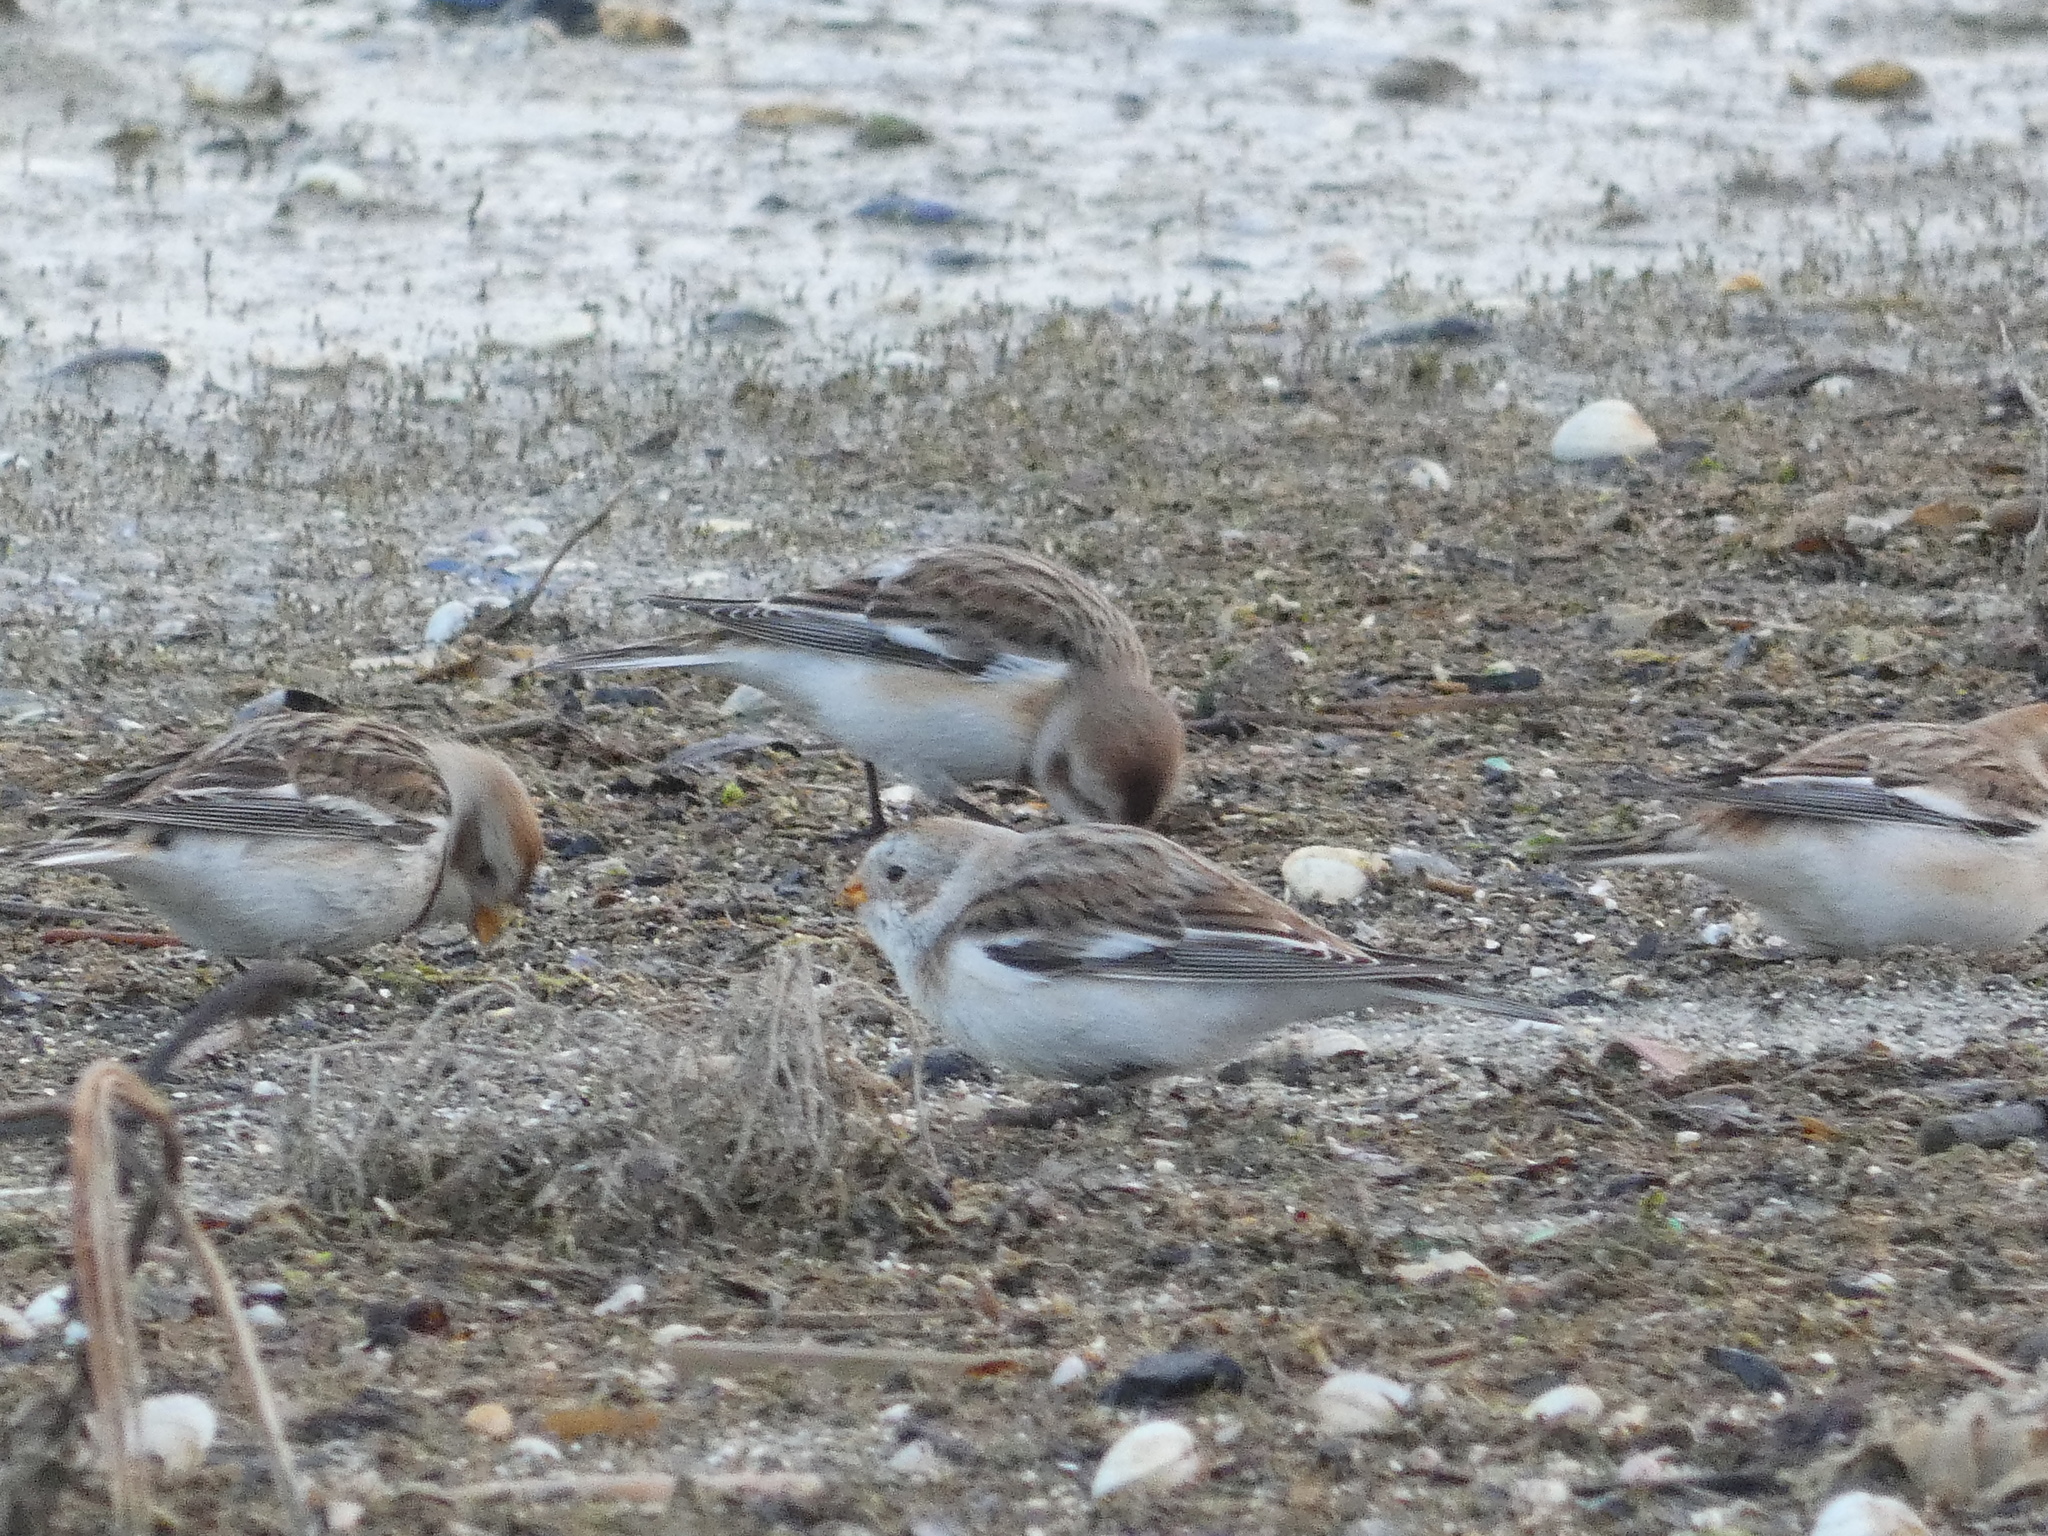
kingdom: Animalia
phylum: Chordata
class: Aves
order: Passeriformes
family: Calcariidae
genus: Plectrophenax
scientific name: Plectrophenax nivalis
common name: Snow bunting
